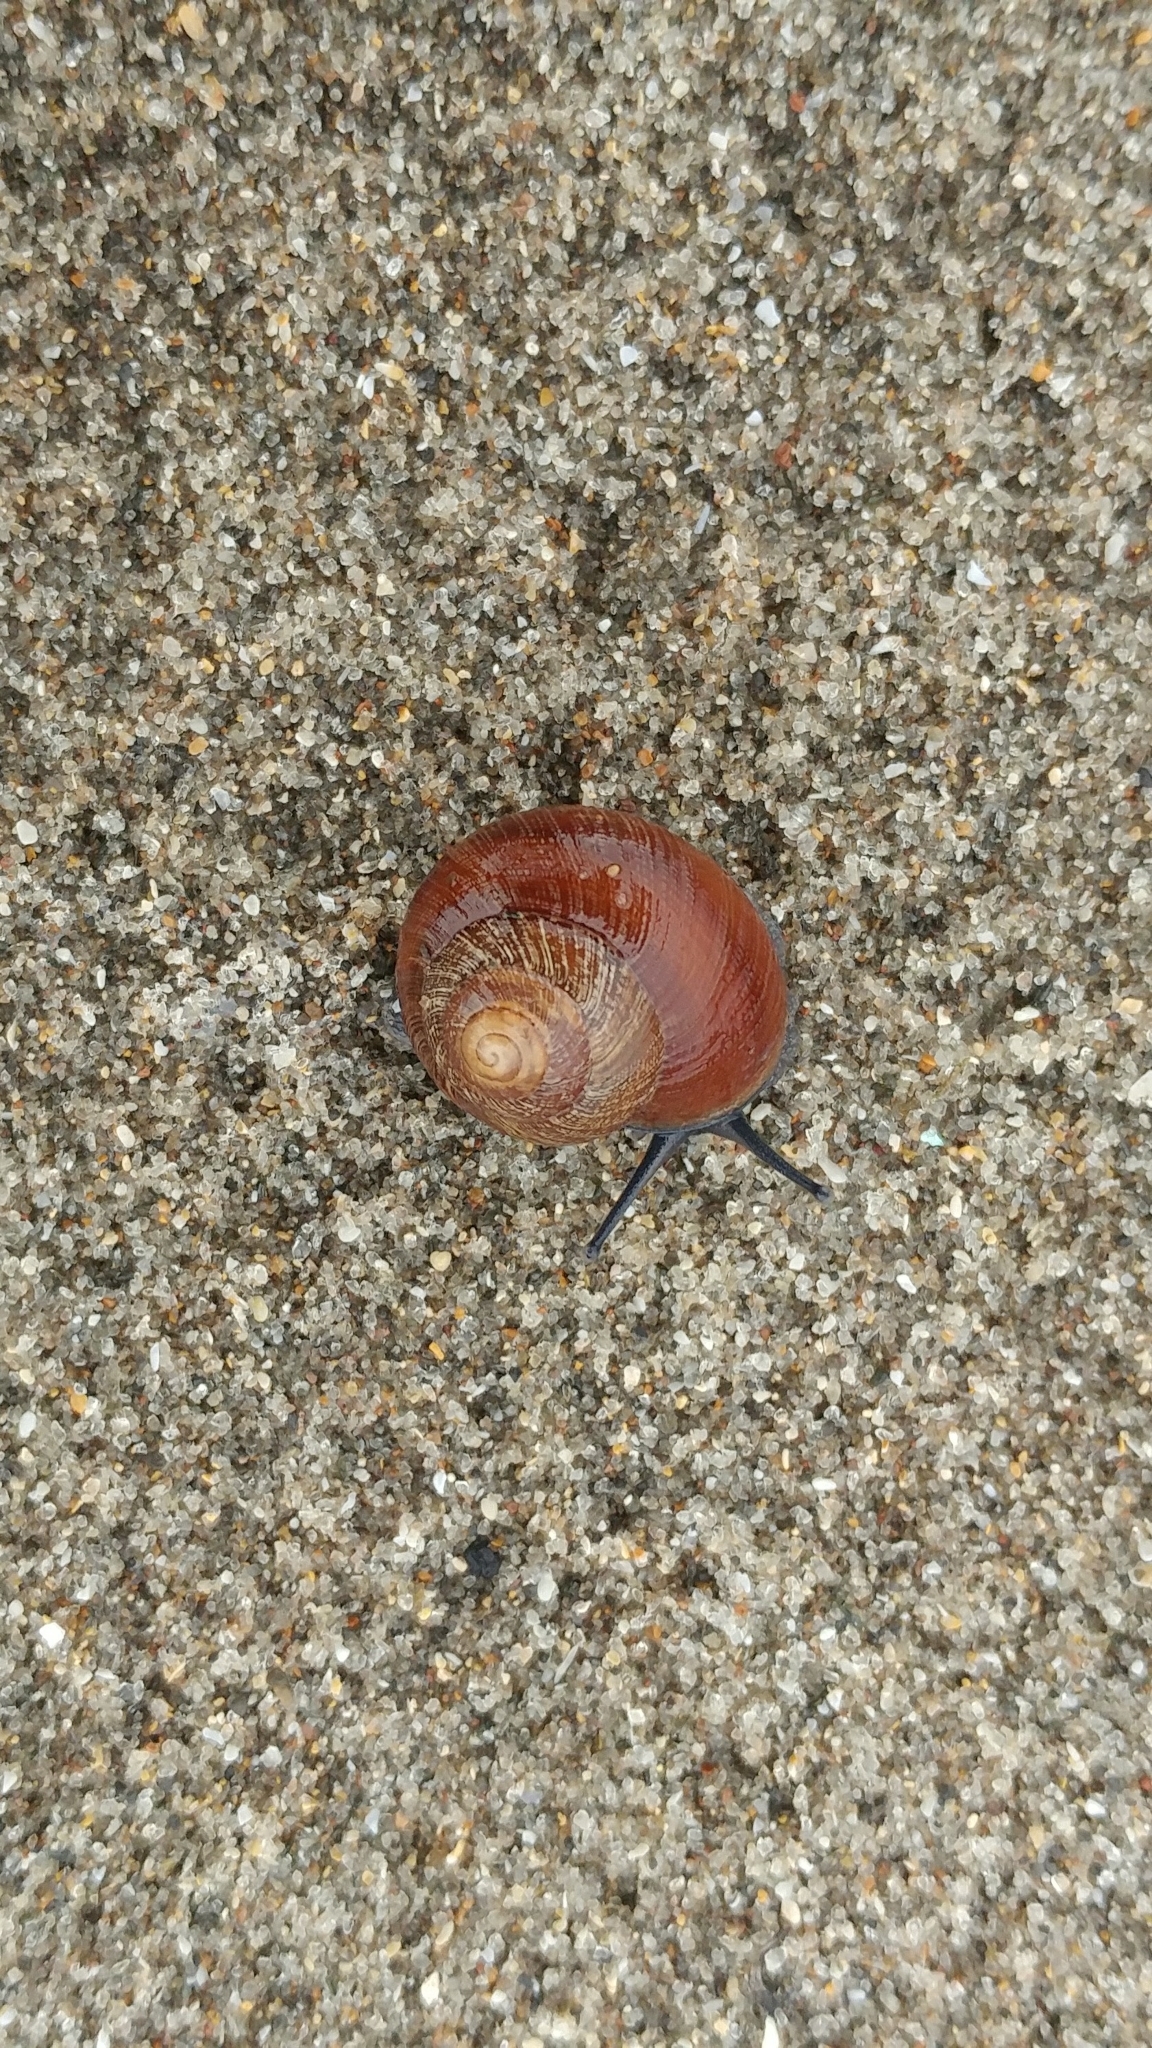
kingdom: Animalia
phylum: Mollusca
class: Gastropoda
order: Stylommatophora
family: Xanthonychidae
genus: Xerarionta
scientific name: Xerarionta intercisa
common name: Plain cactus snail
